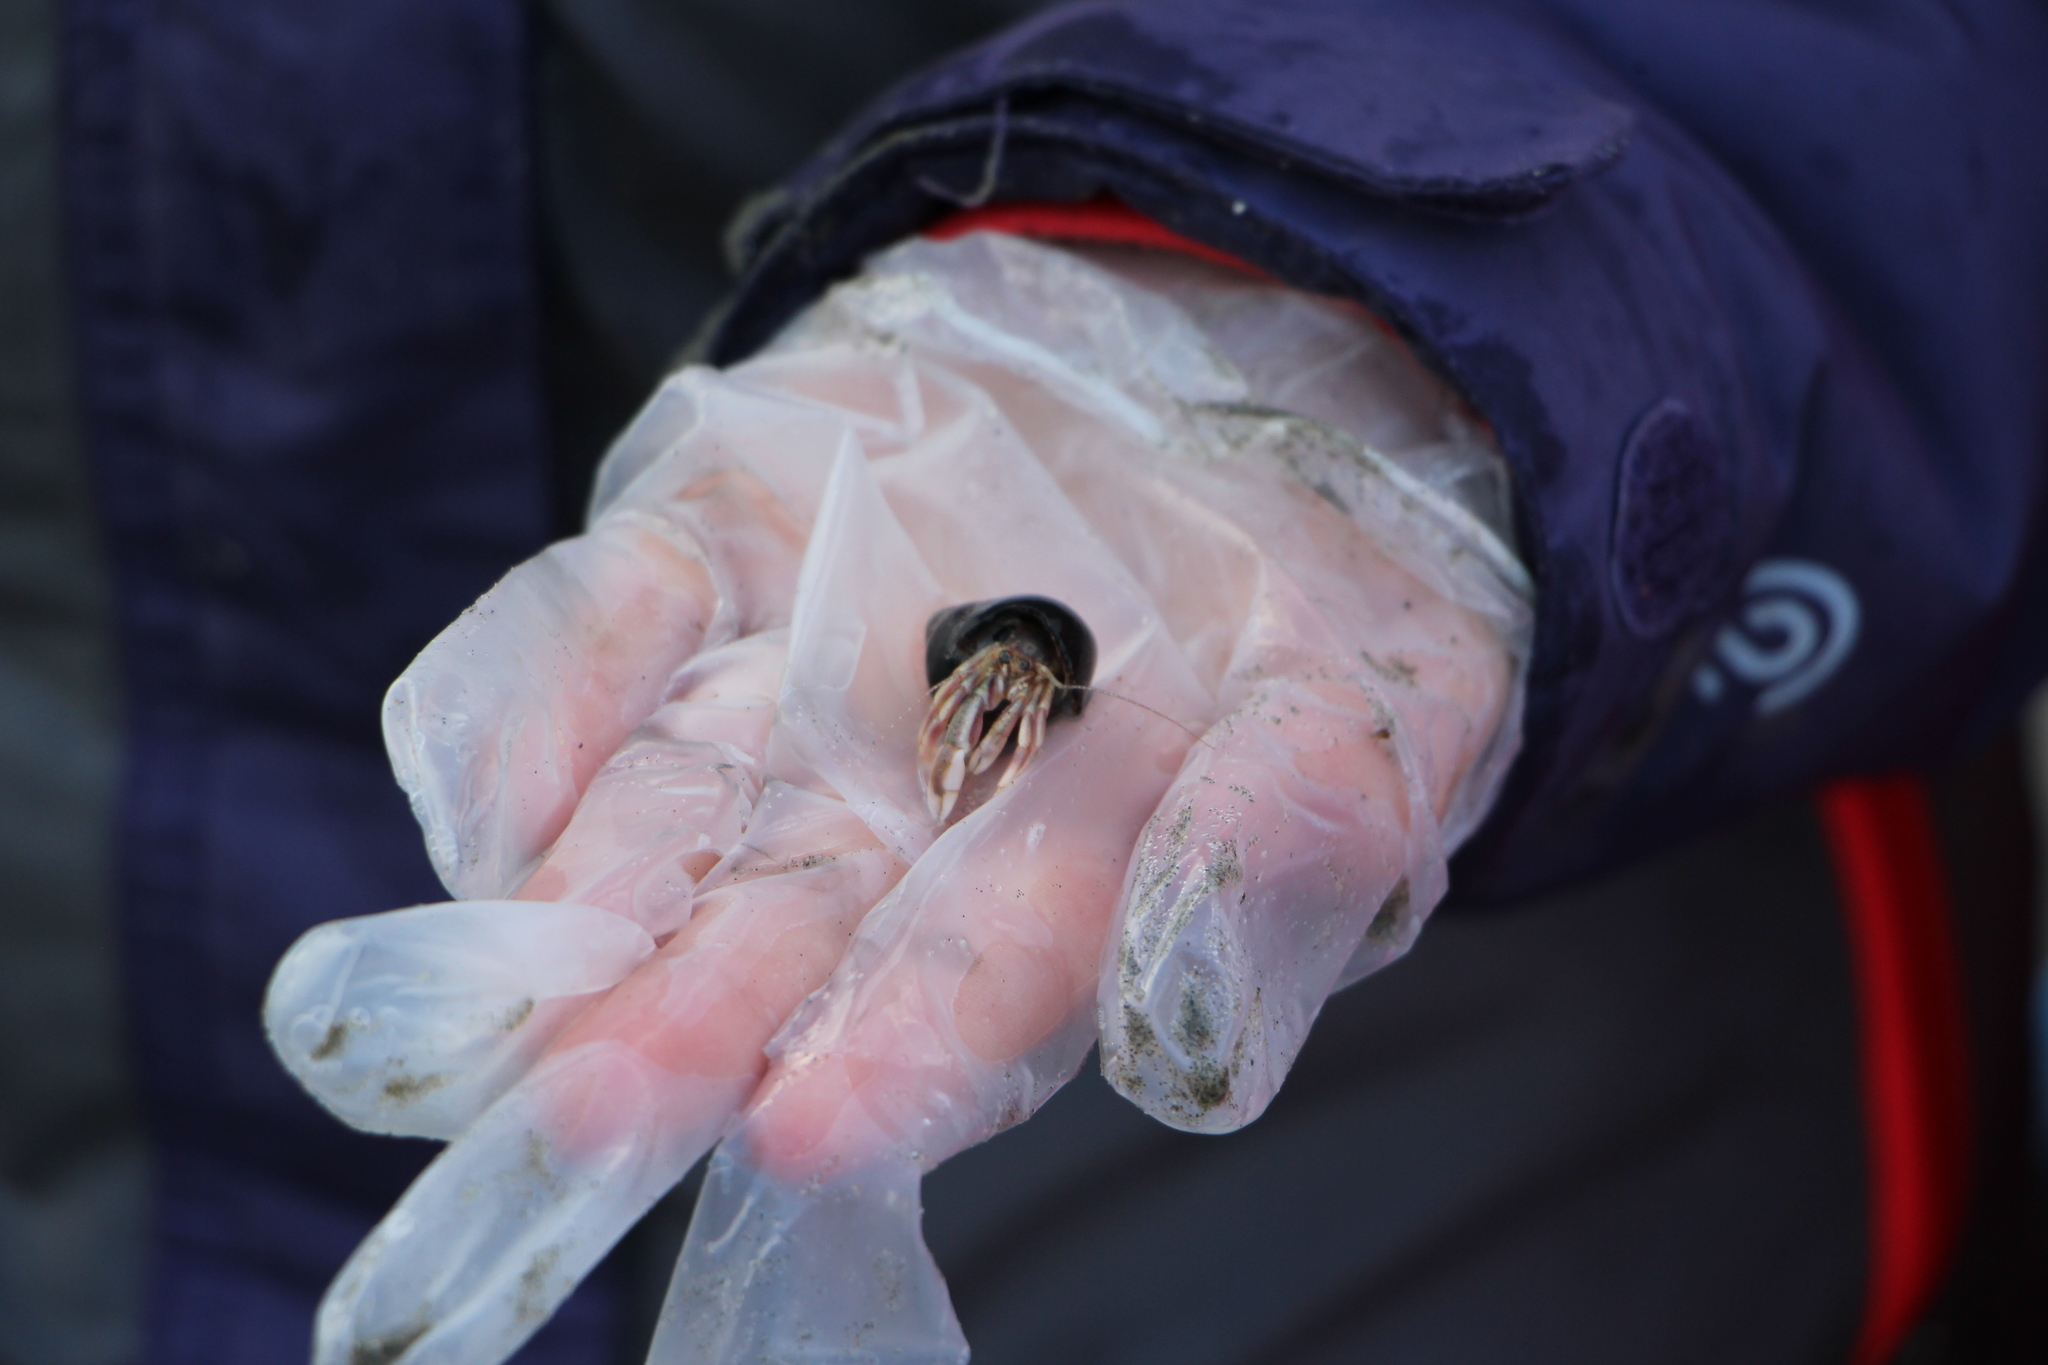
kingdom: Animalia
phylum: Arthropoda
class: Malacostraca
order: Decapoda
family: Paguridae
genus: Pagurus
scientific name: Pagurus longicarpus
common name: Long-armed hermit crab
